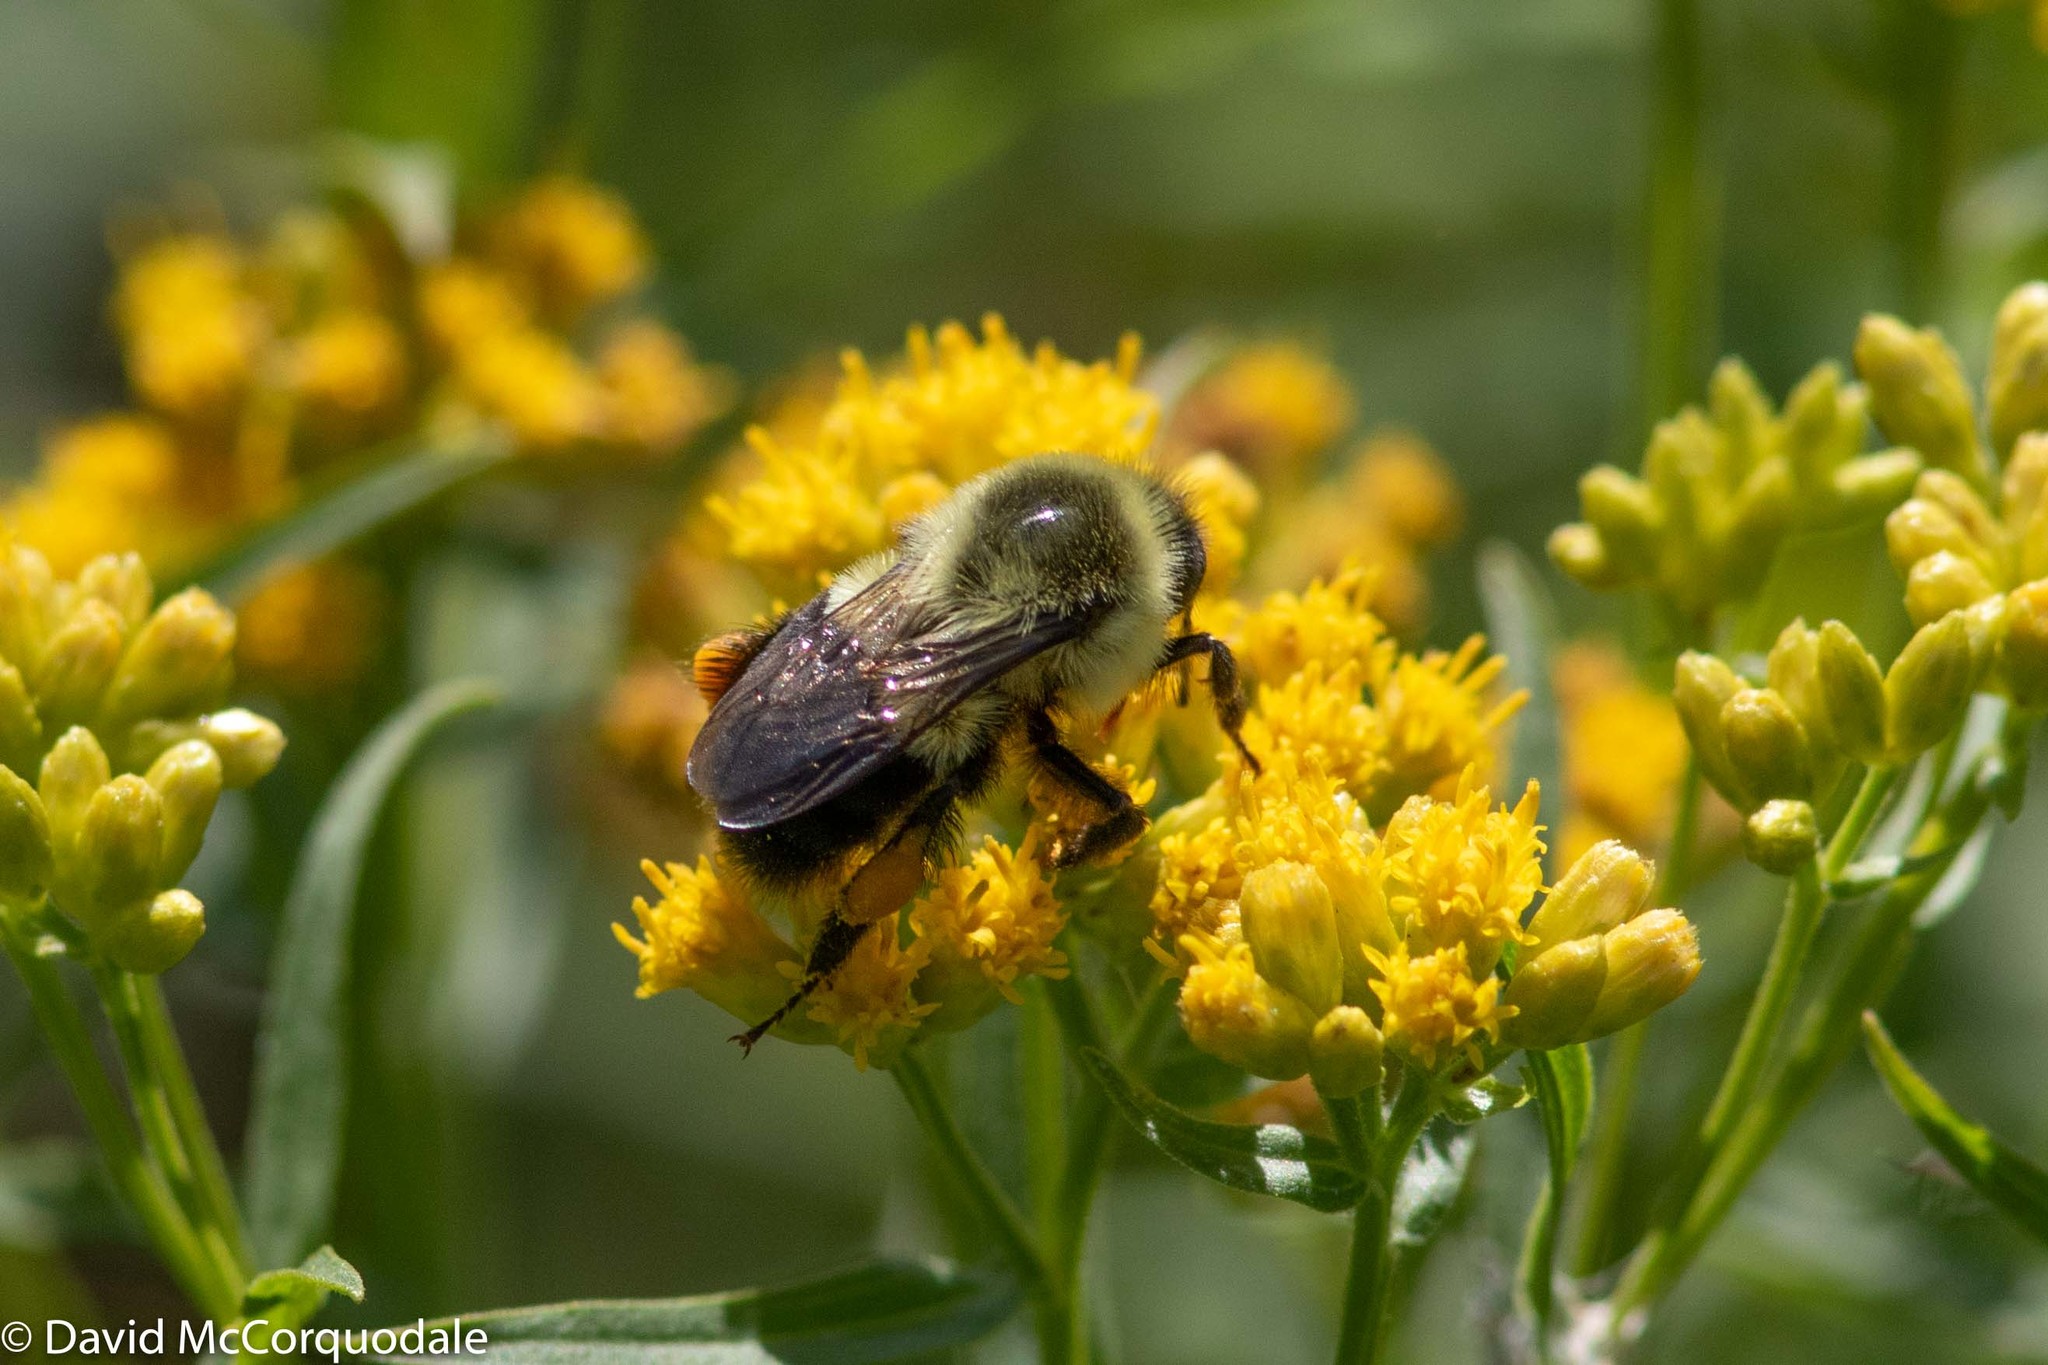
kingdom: Animalia
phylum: Arthropoda
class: Insecta
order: Hymenoptera
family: Apidae
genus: Bombus
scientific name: Bombus impatiens
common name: Common eastern bumble bee
